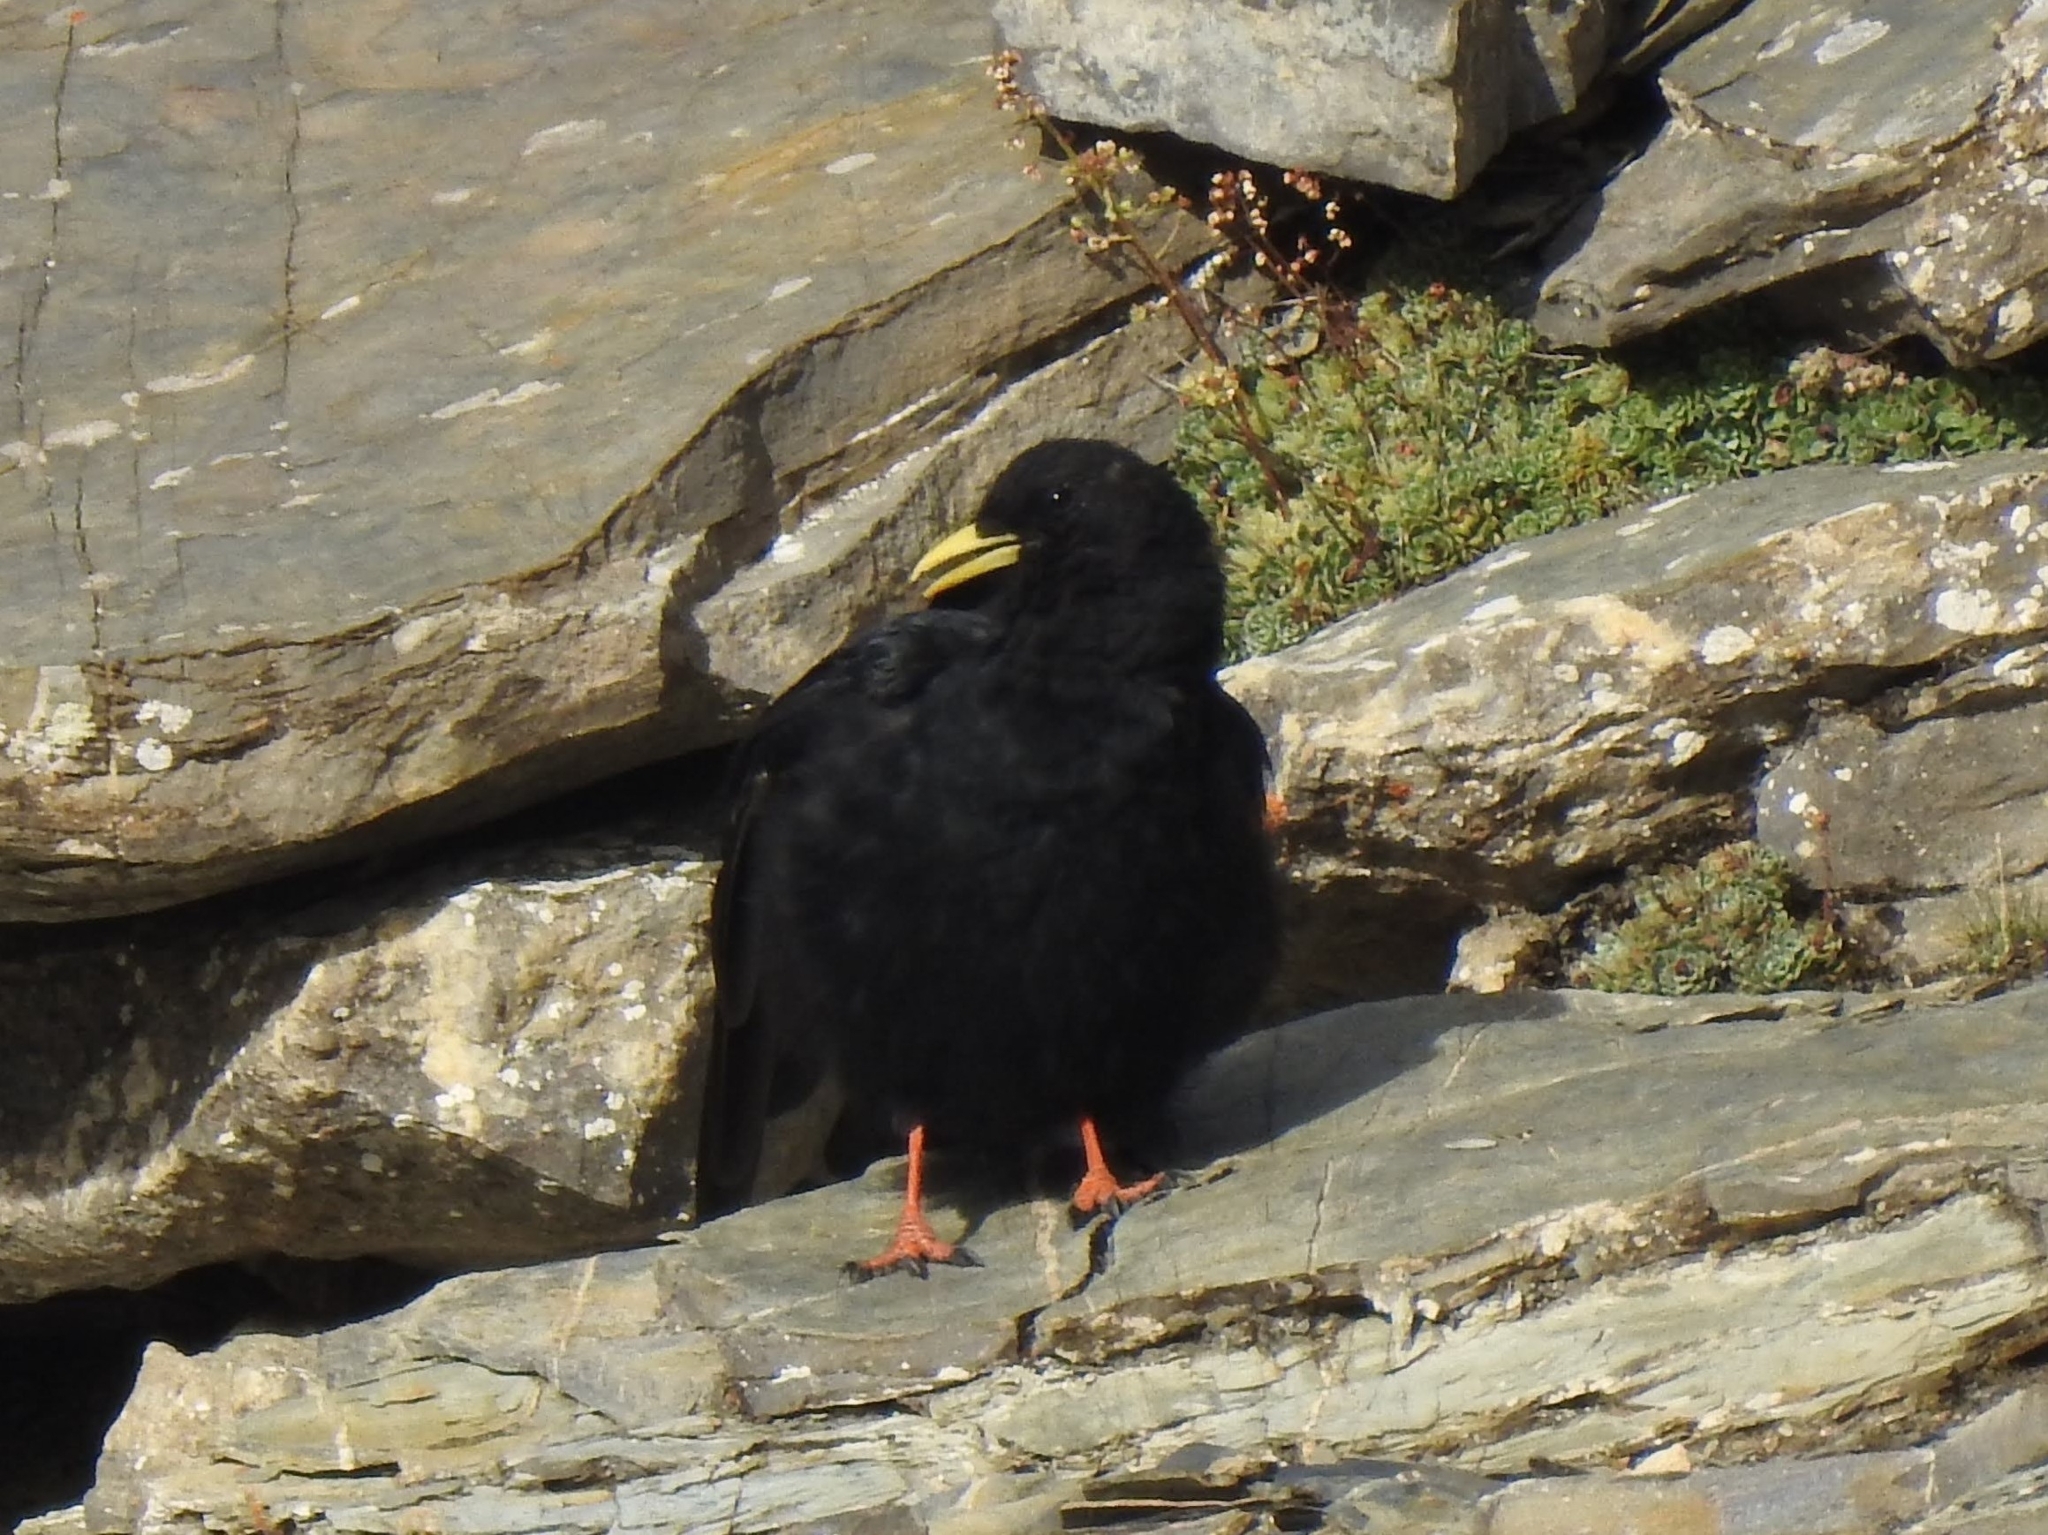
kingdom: Animalia
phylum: Chordata
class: Aves
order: Passeriformes
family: Corvidae
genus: Pyrrhocorax
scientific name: Pyrrhocorax graculus
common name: Alpine chough
